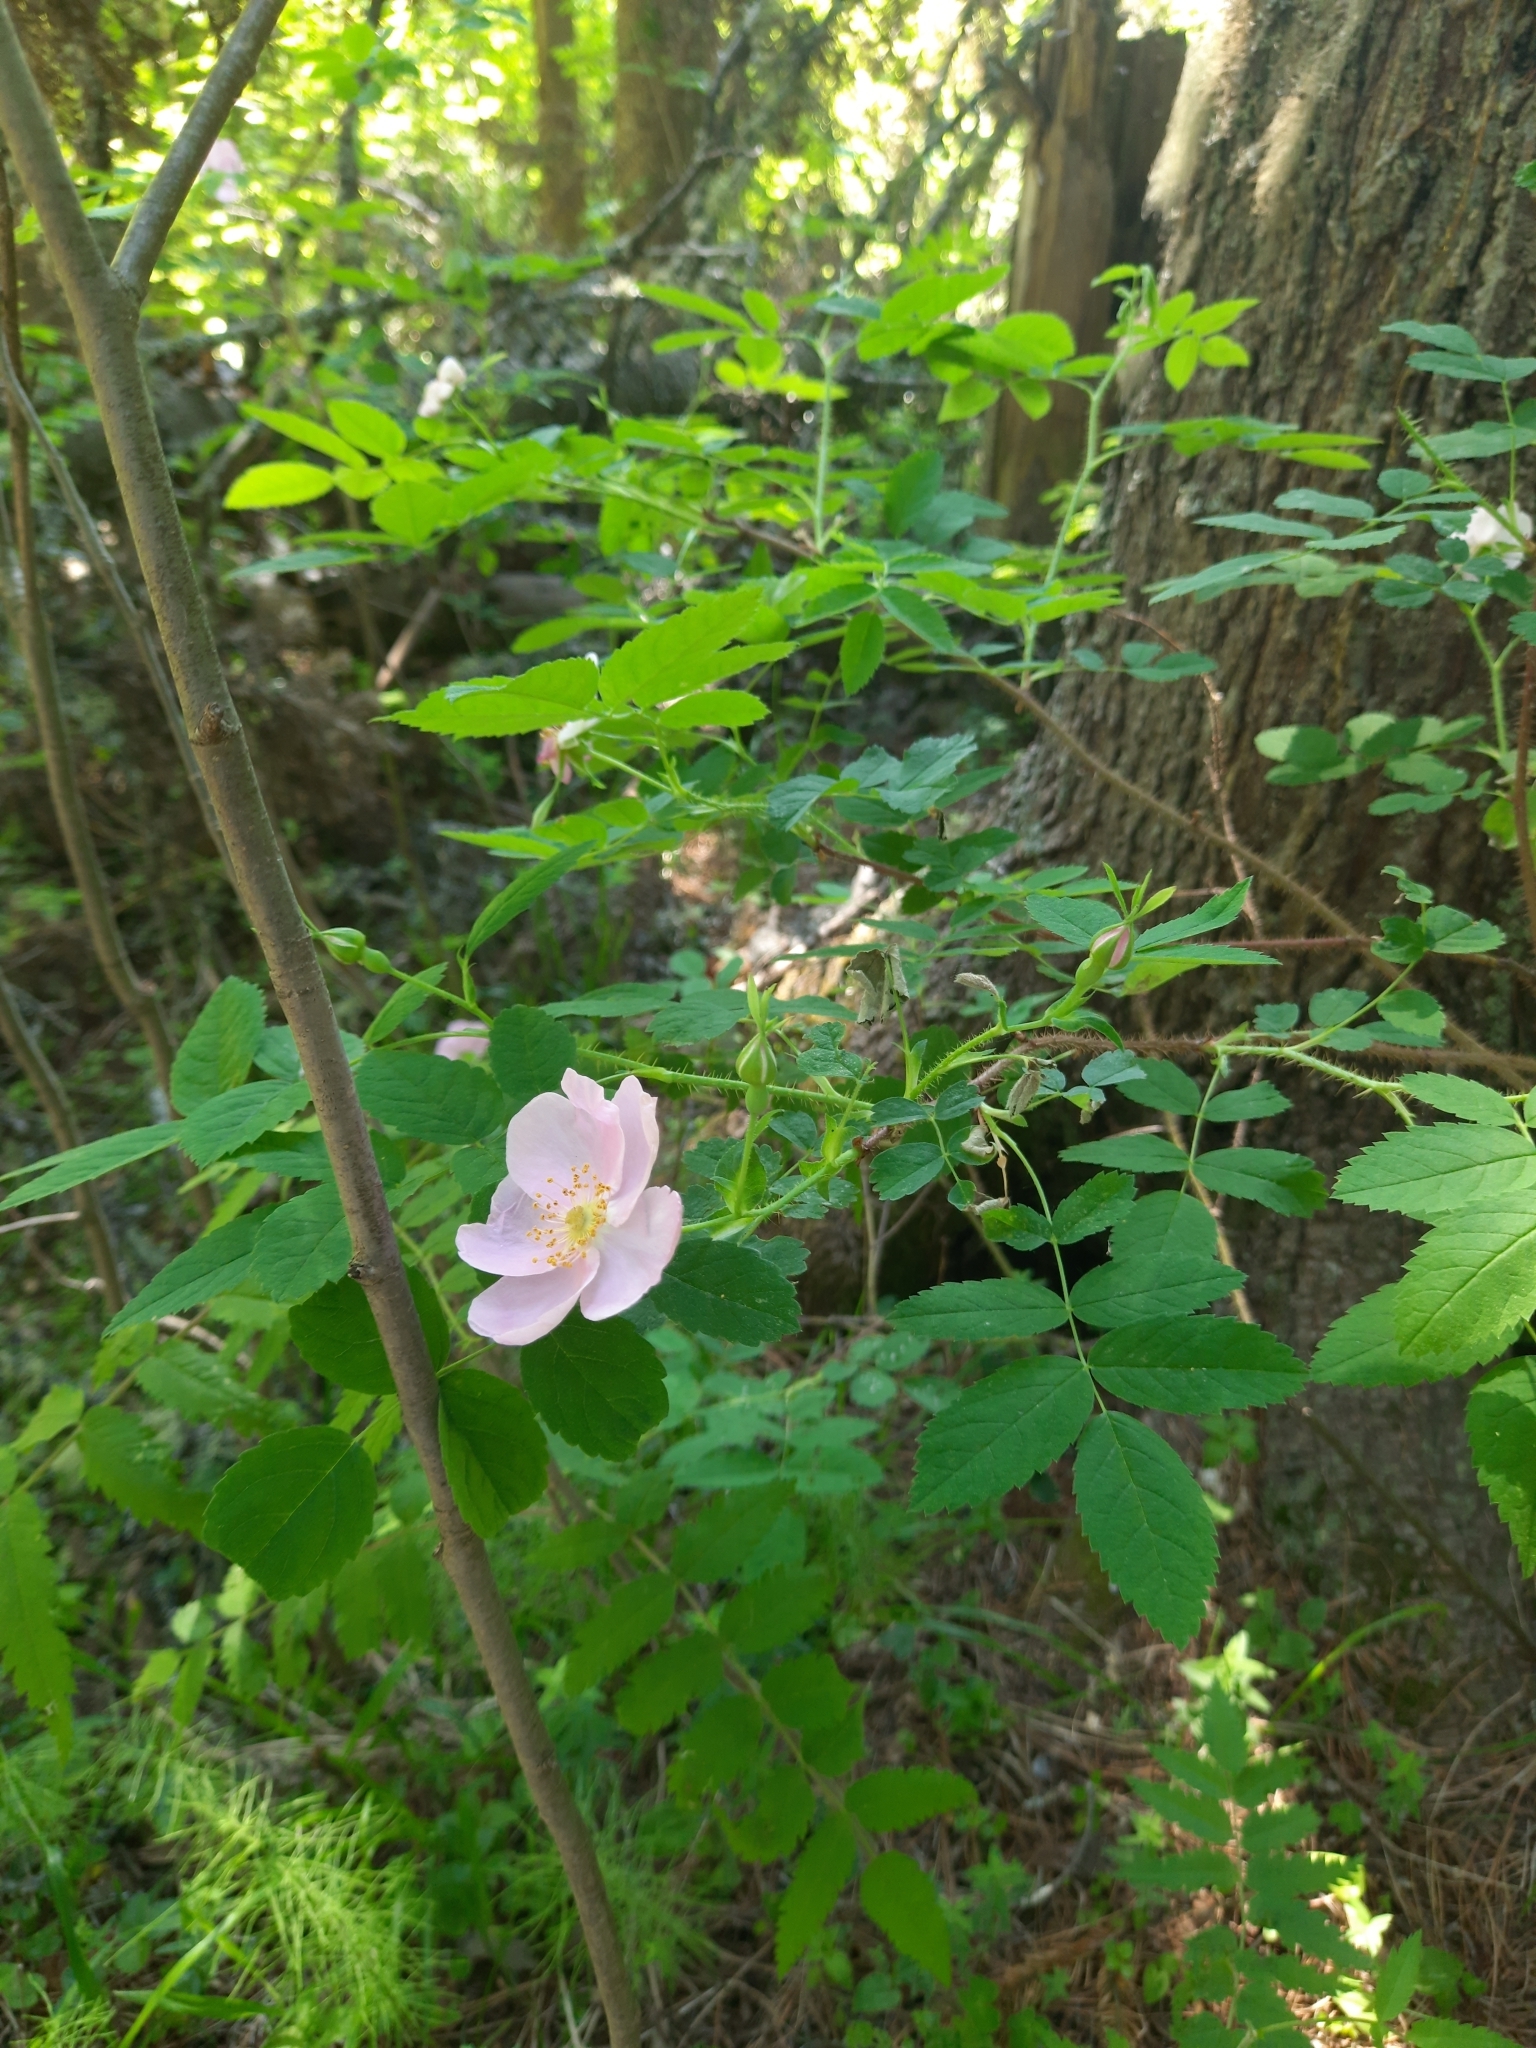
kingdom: Plantae
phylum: Tracheophyta
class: Magnoliopsida
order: Rosales
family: Rosaceae
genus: Rosa
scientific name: Rosa acicularis
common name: Prickly rose
